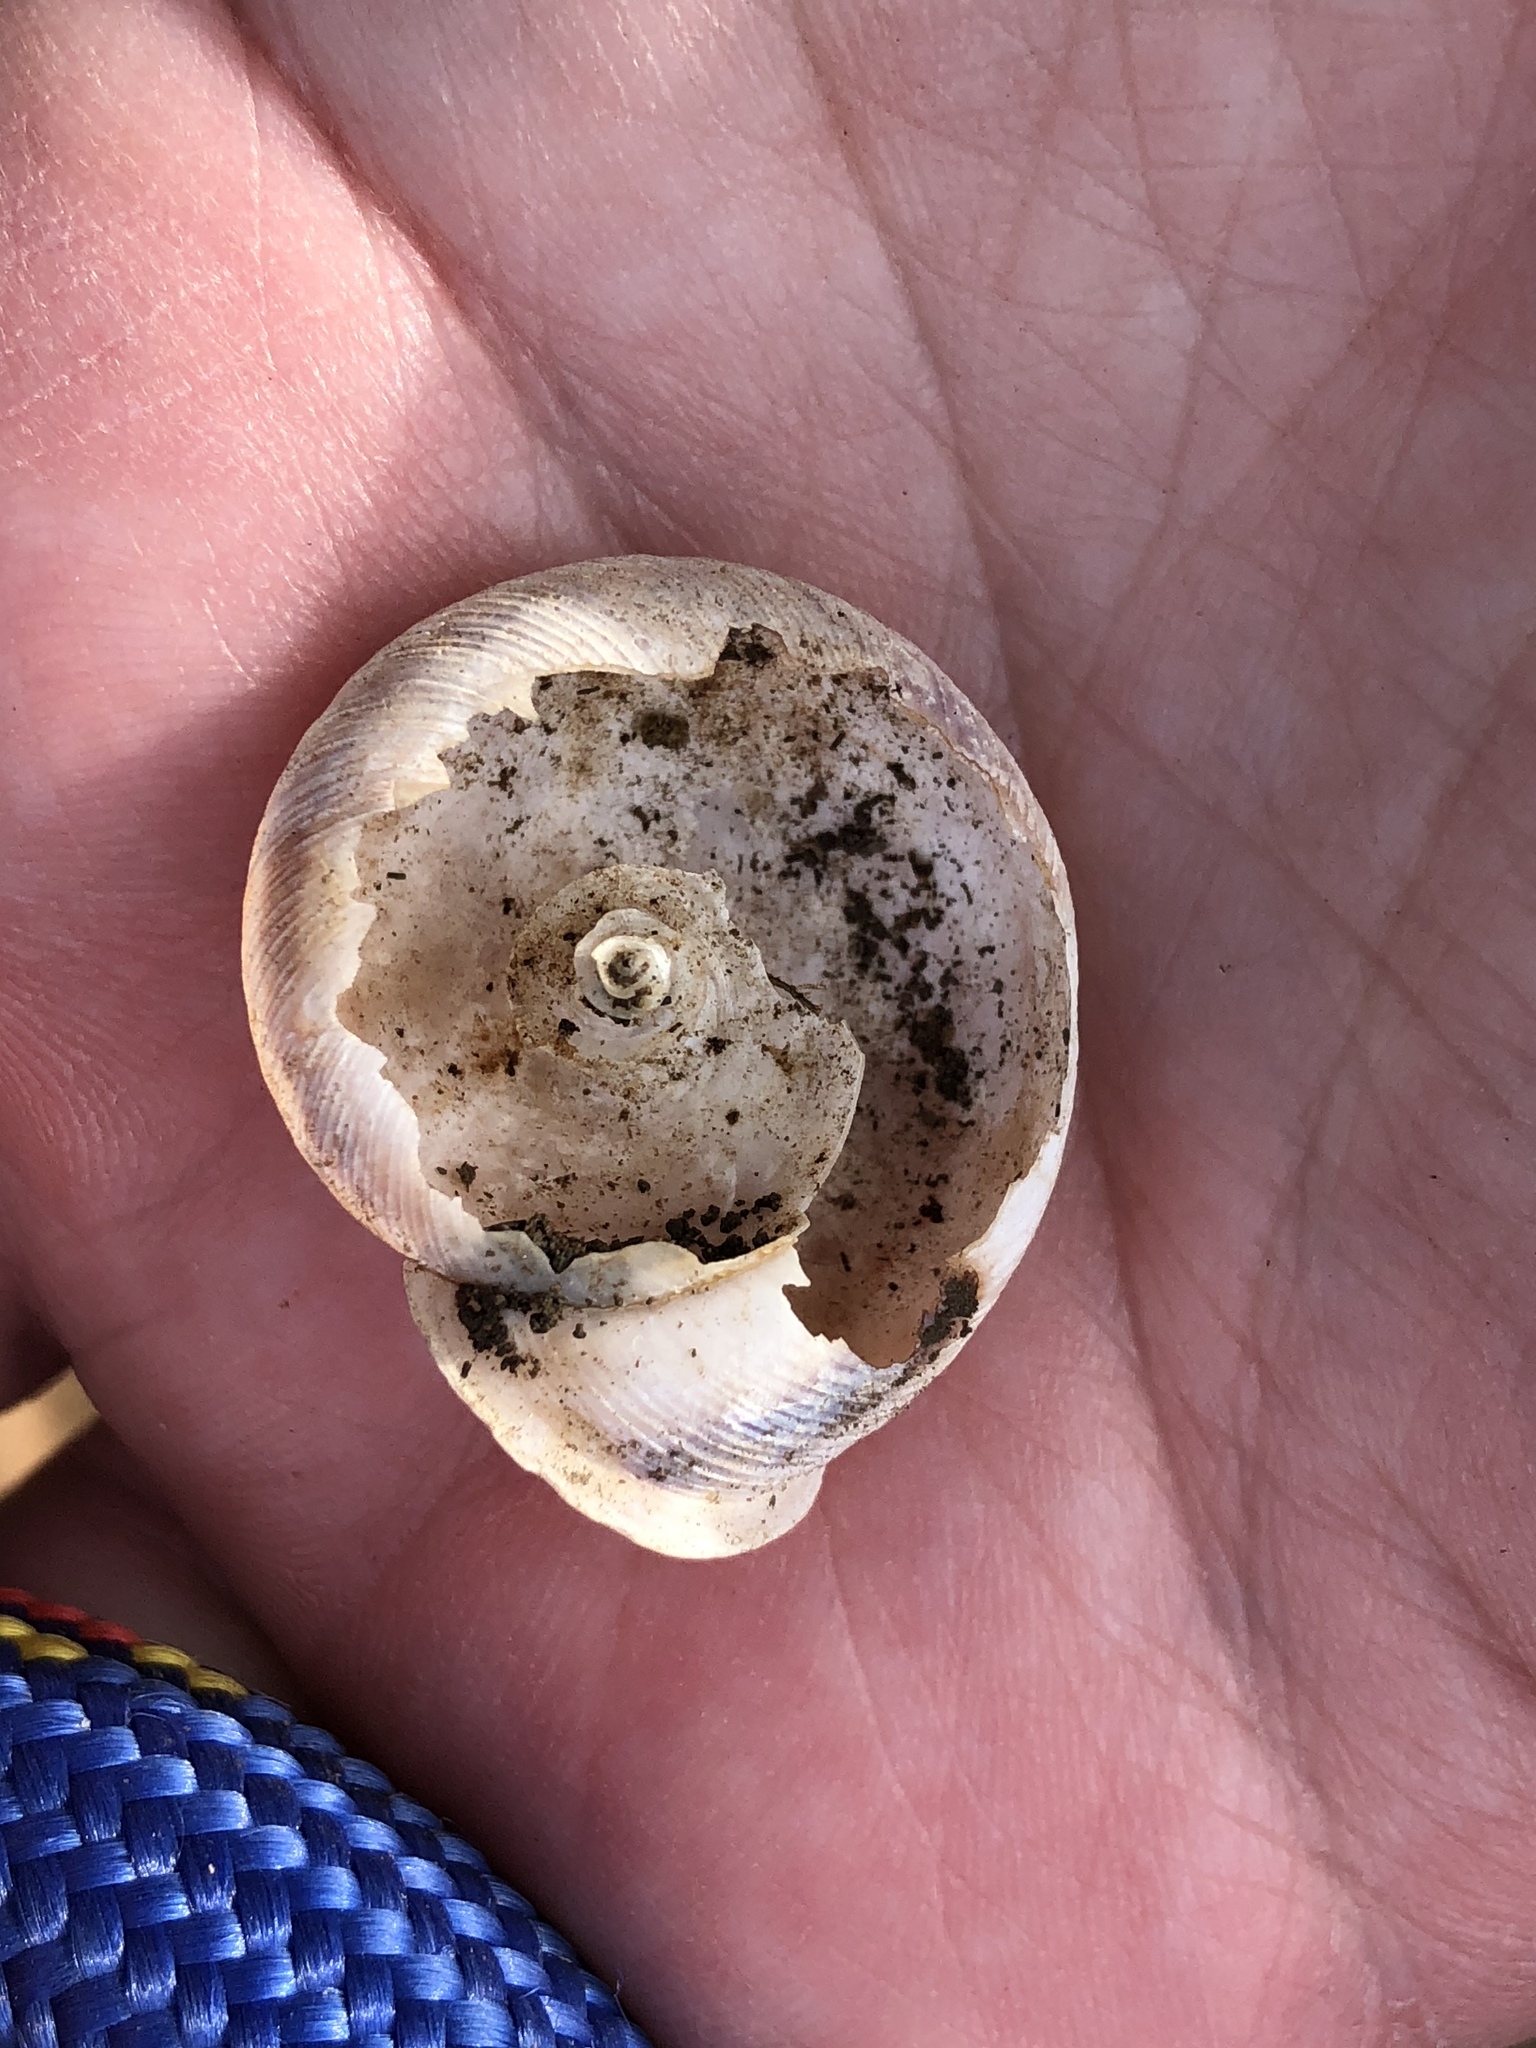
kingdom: Animalia
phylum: Mollusca
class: Gastropoda
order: Stylommatophora
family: Polygyridae
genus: Neohelix
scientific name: Neohelix albolabris
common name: Eastern whitelip
